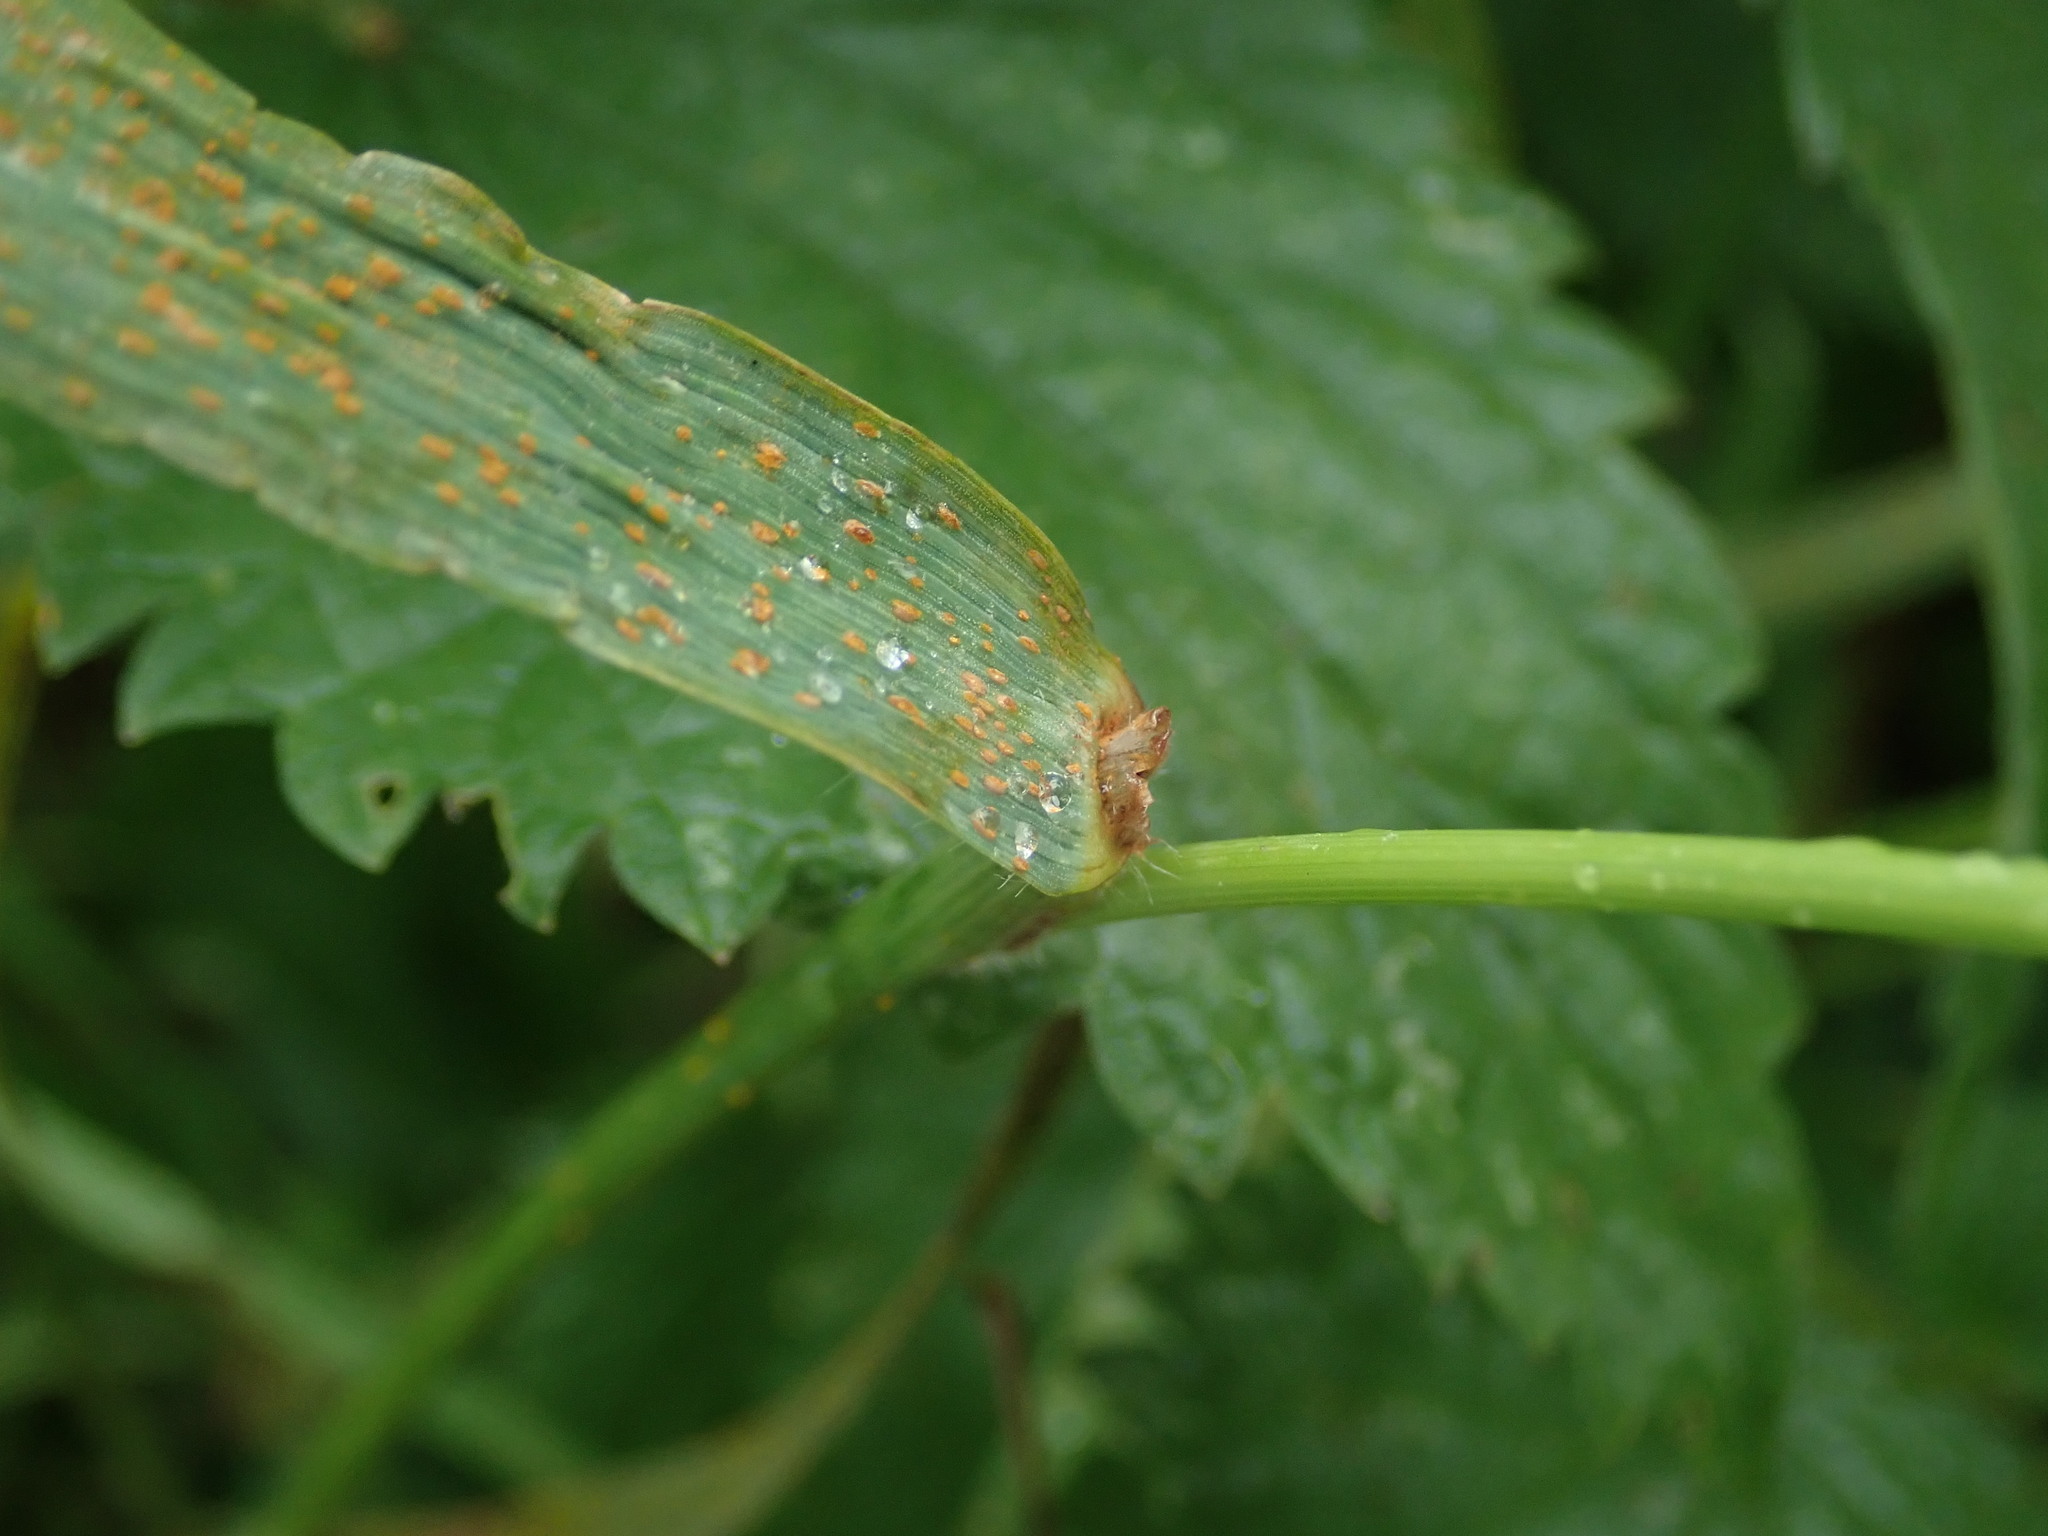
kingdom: Plantae
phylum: Tracheophyta
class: Liliopsida
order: Poales
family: Poaceae
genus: Bromus
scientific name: Bromus carinatus
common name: Mountain brome
